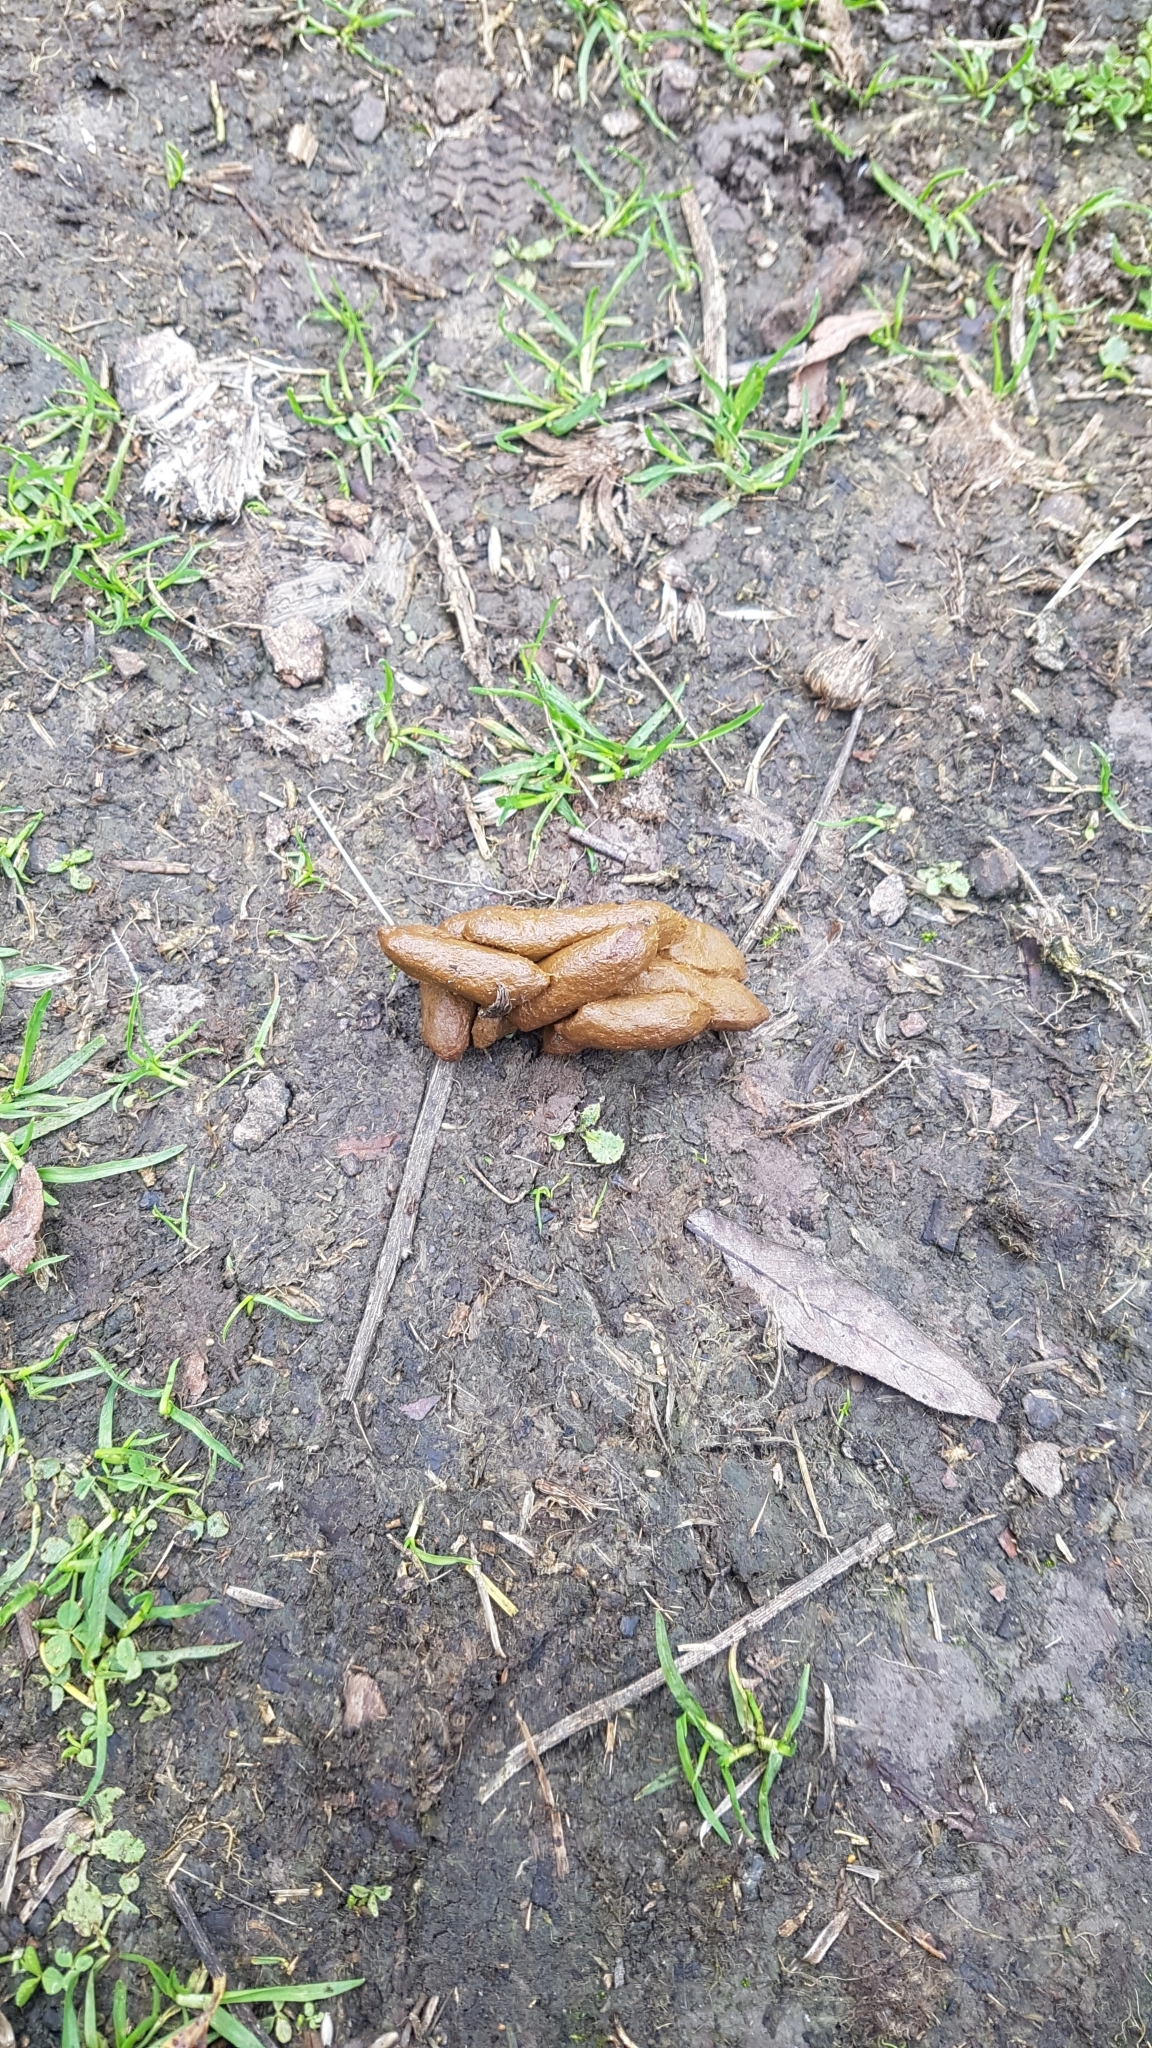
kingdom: Animalia
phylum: Chordata
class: Mammalia
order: Diprotodontia
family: Phalangeridae
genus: Trichosurus
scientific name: Trichosurus vulpecula
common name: Common brushtail
